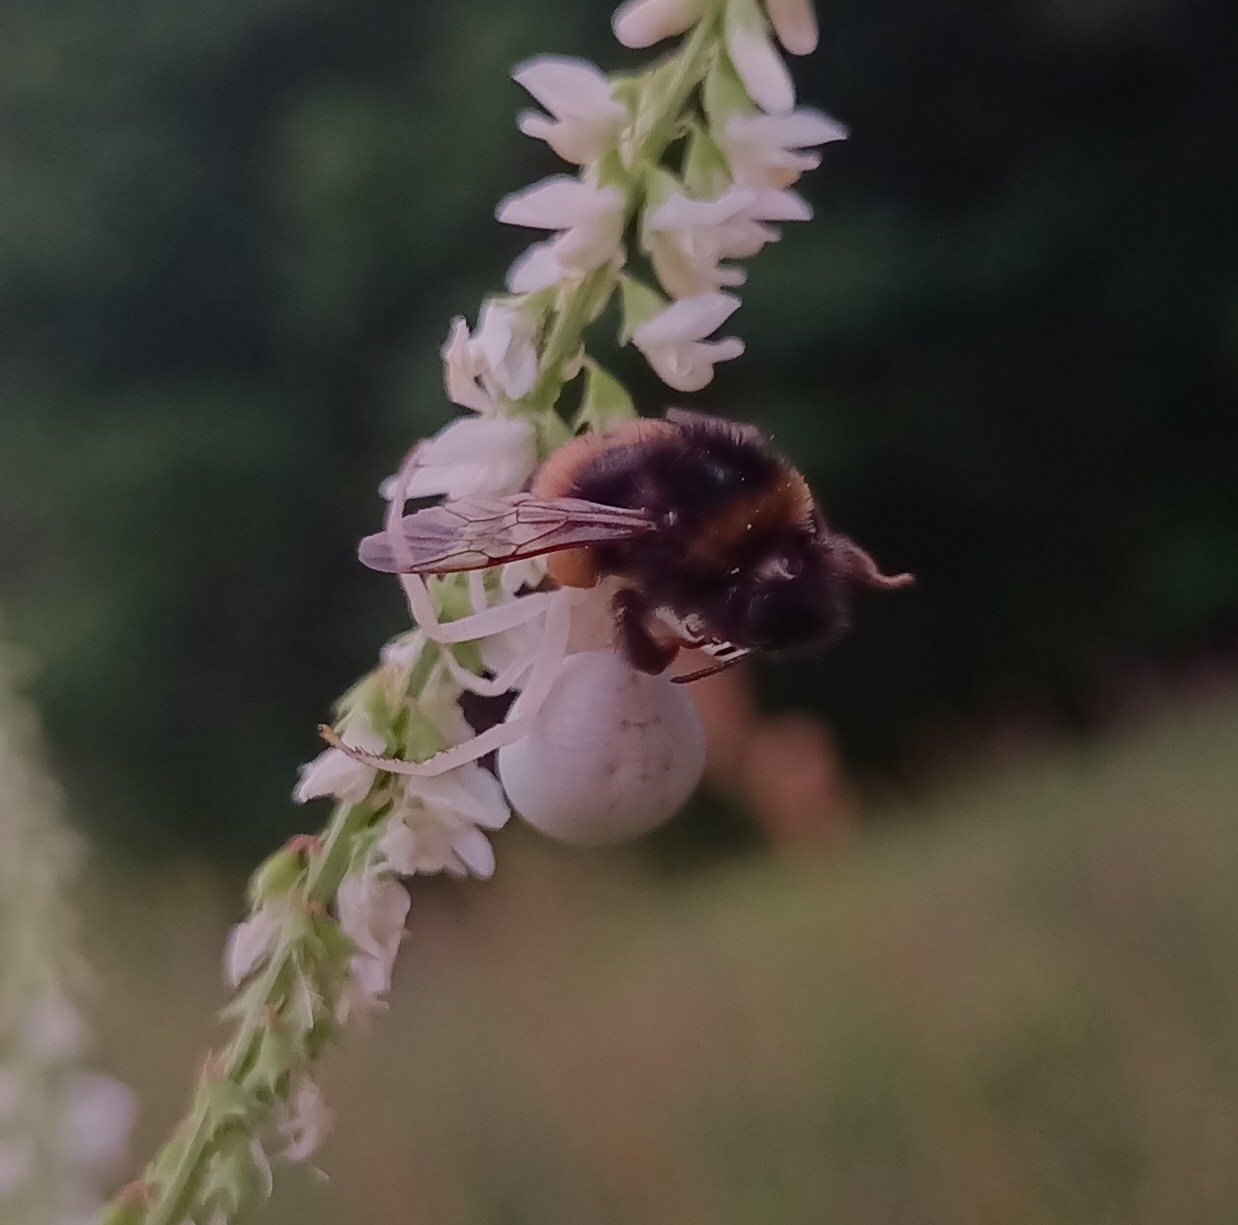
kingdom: Animalia
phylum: Arthropoda
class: Arachnida
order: Araneae
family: Thomisidae
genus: Misumena
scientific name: Misumena vatia
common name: Goldenrod crab spider
